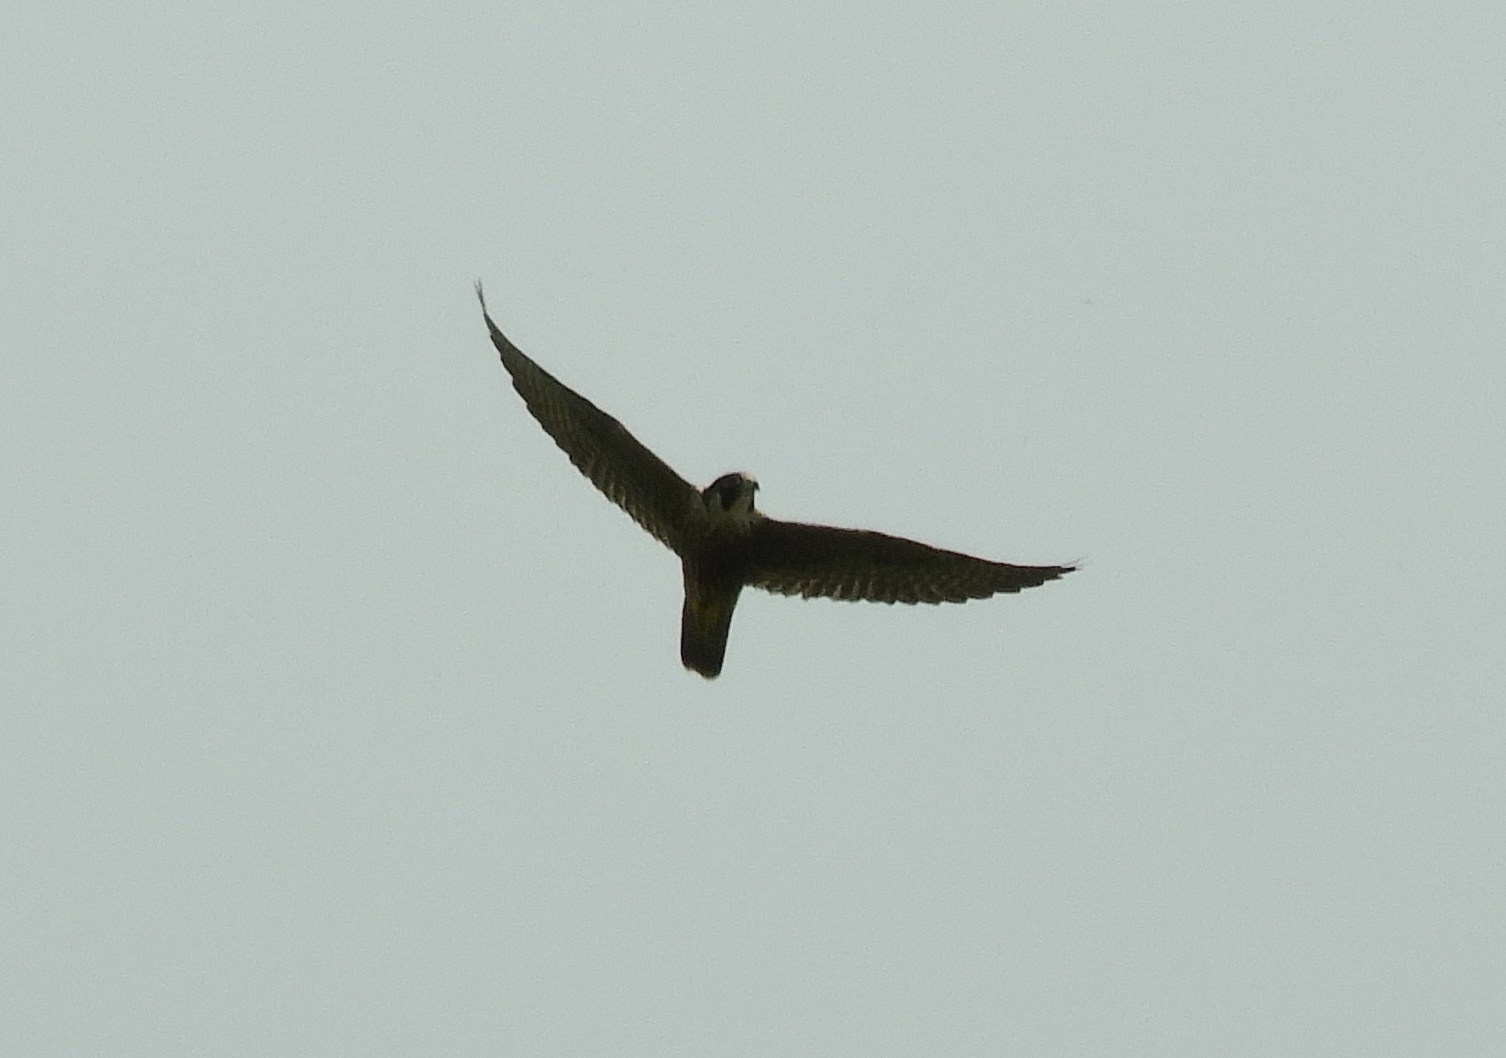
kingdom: Animalia
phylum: Chordata
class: Aves
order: Falconiformes
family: Falconidae
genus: Falco
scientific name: Falco peregrinus
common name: Peregrine falcon
